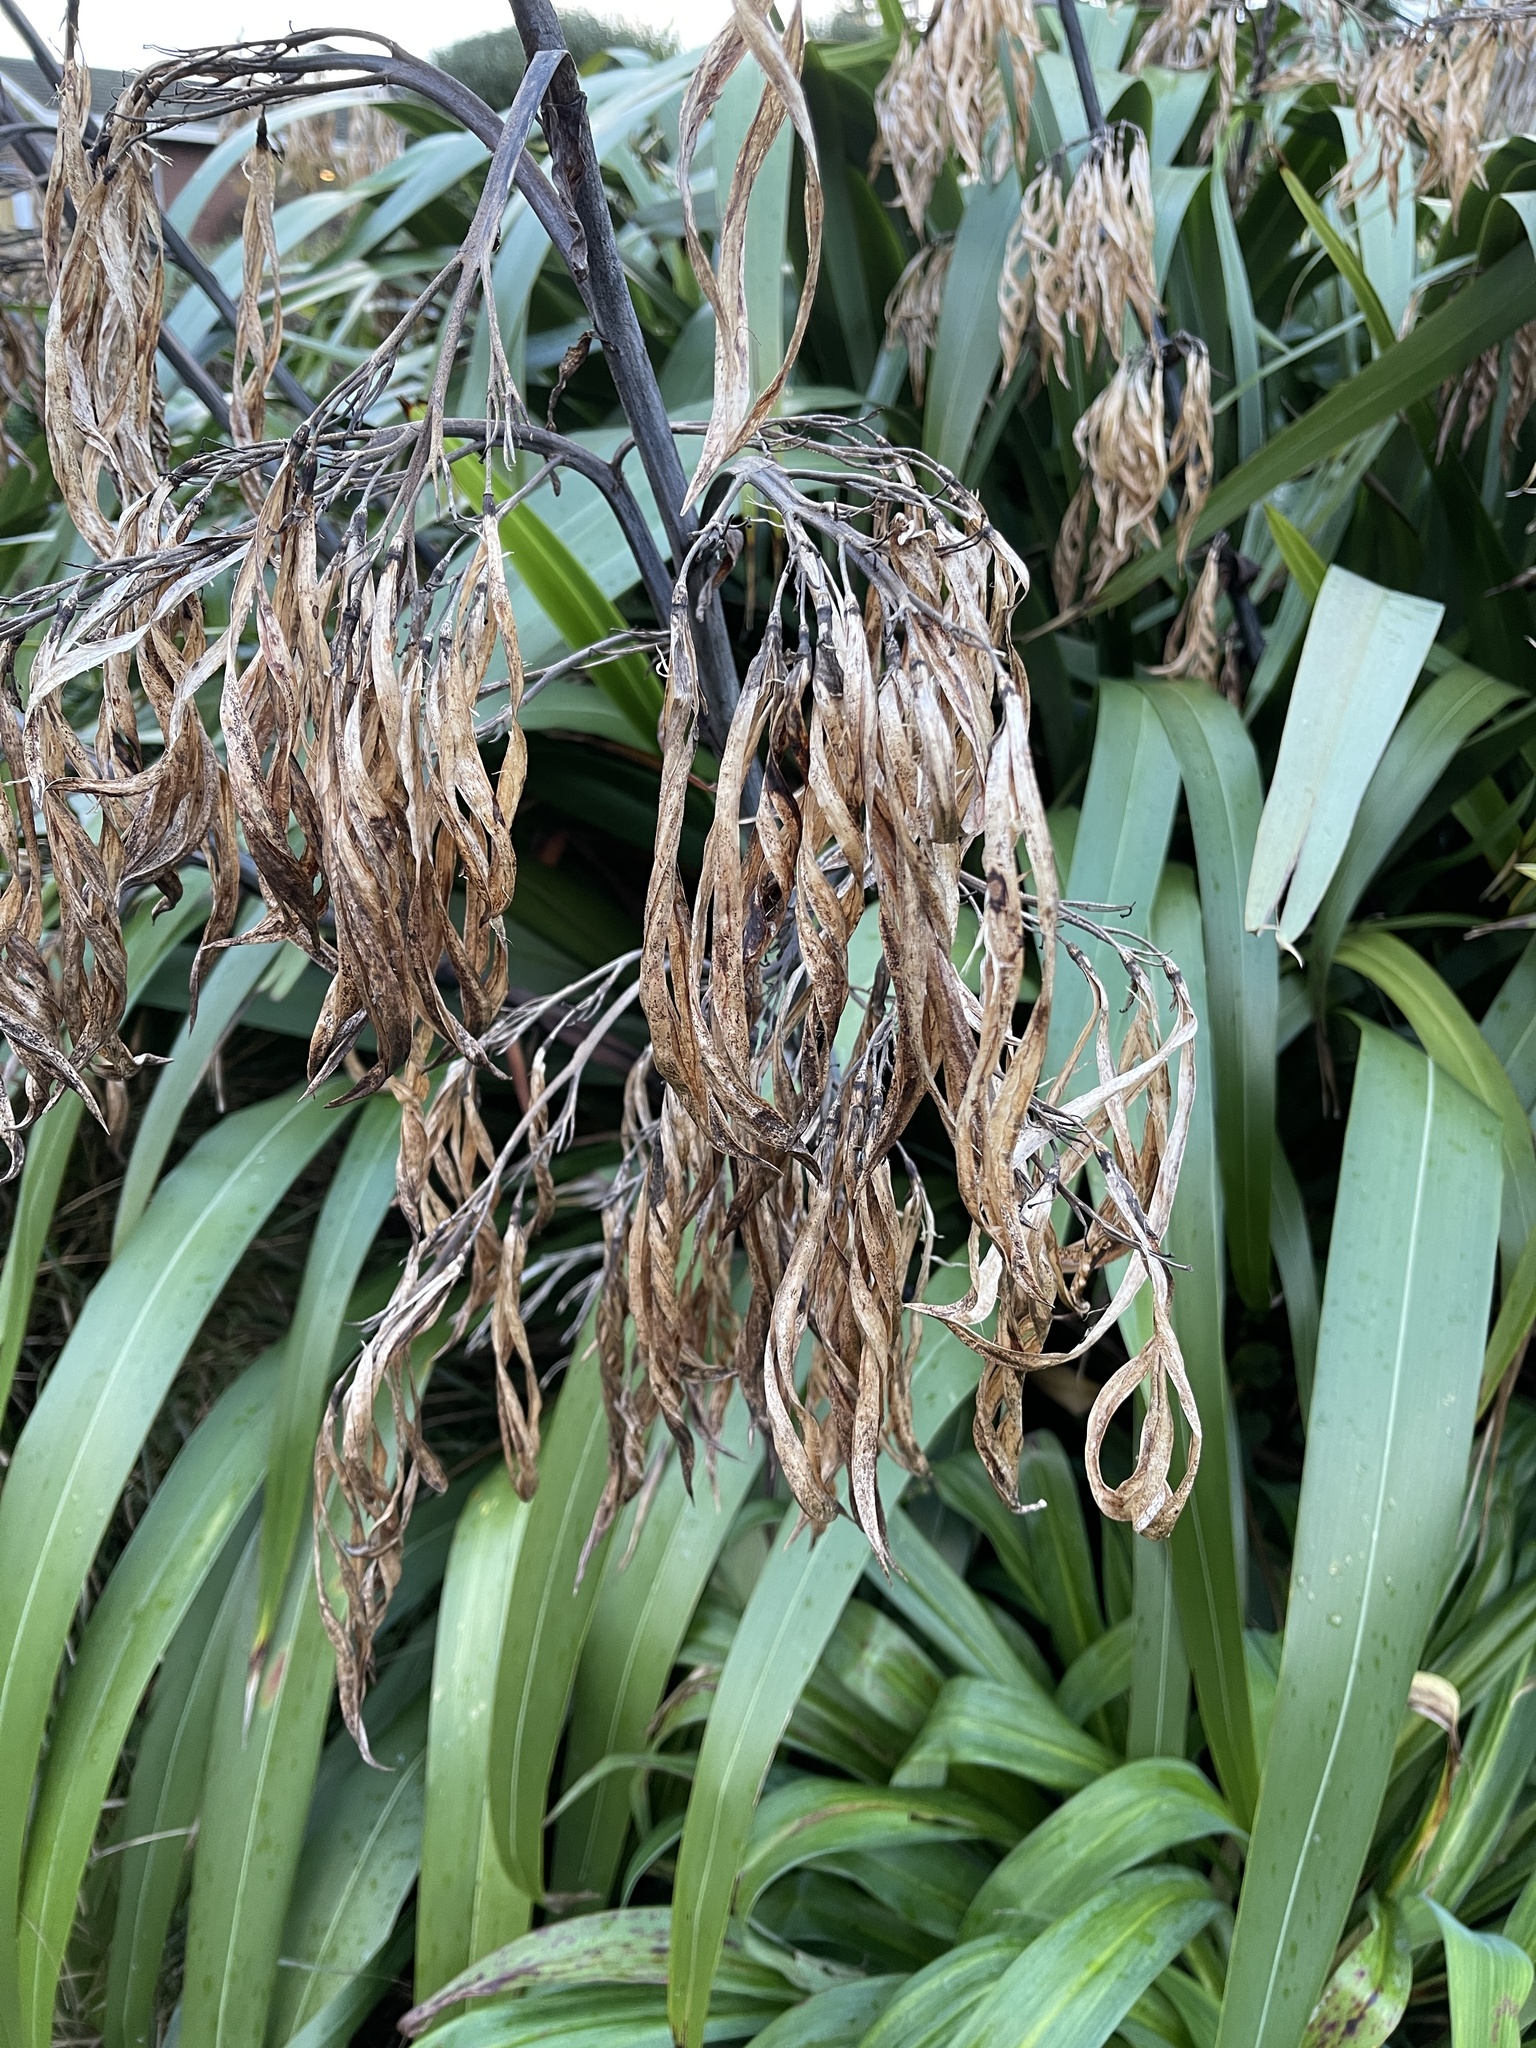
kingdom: Plantae
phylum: Tracheophyta
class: Liliopsida
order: Asparagales
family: Asphodelaceae
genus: Phormium
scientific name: Phormium colensoi
